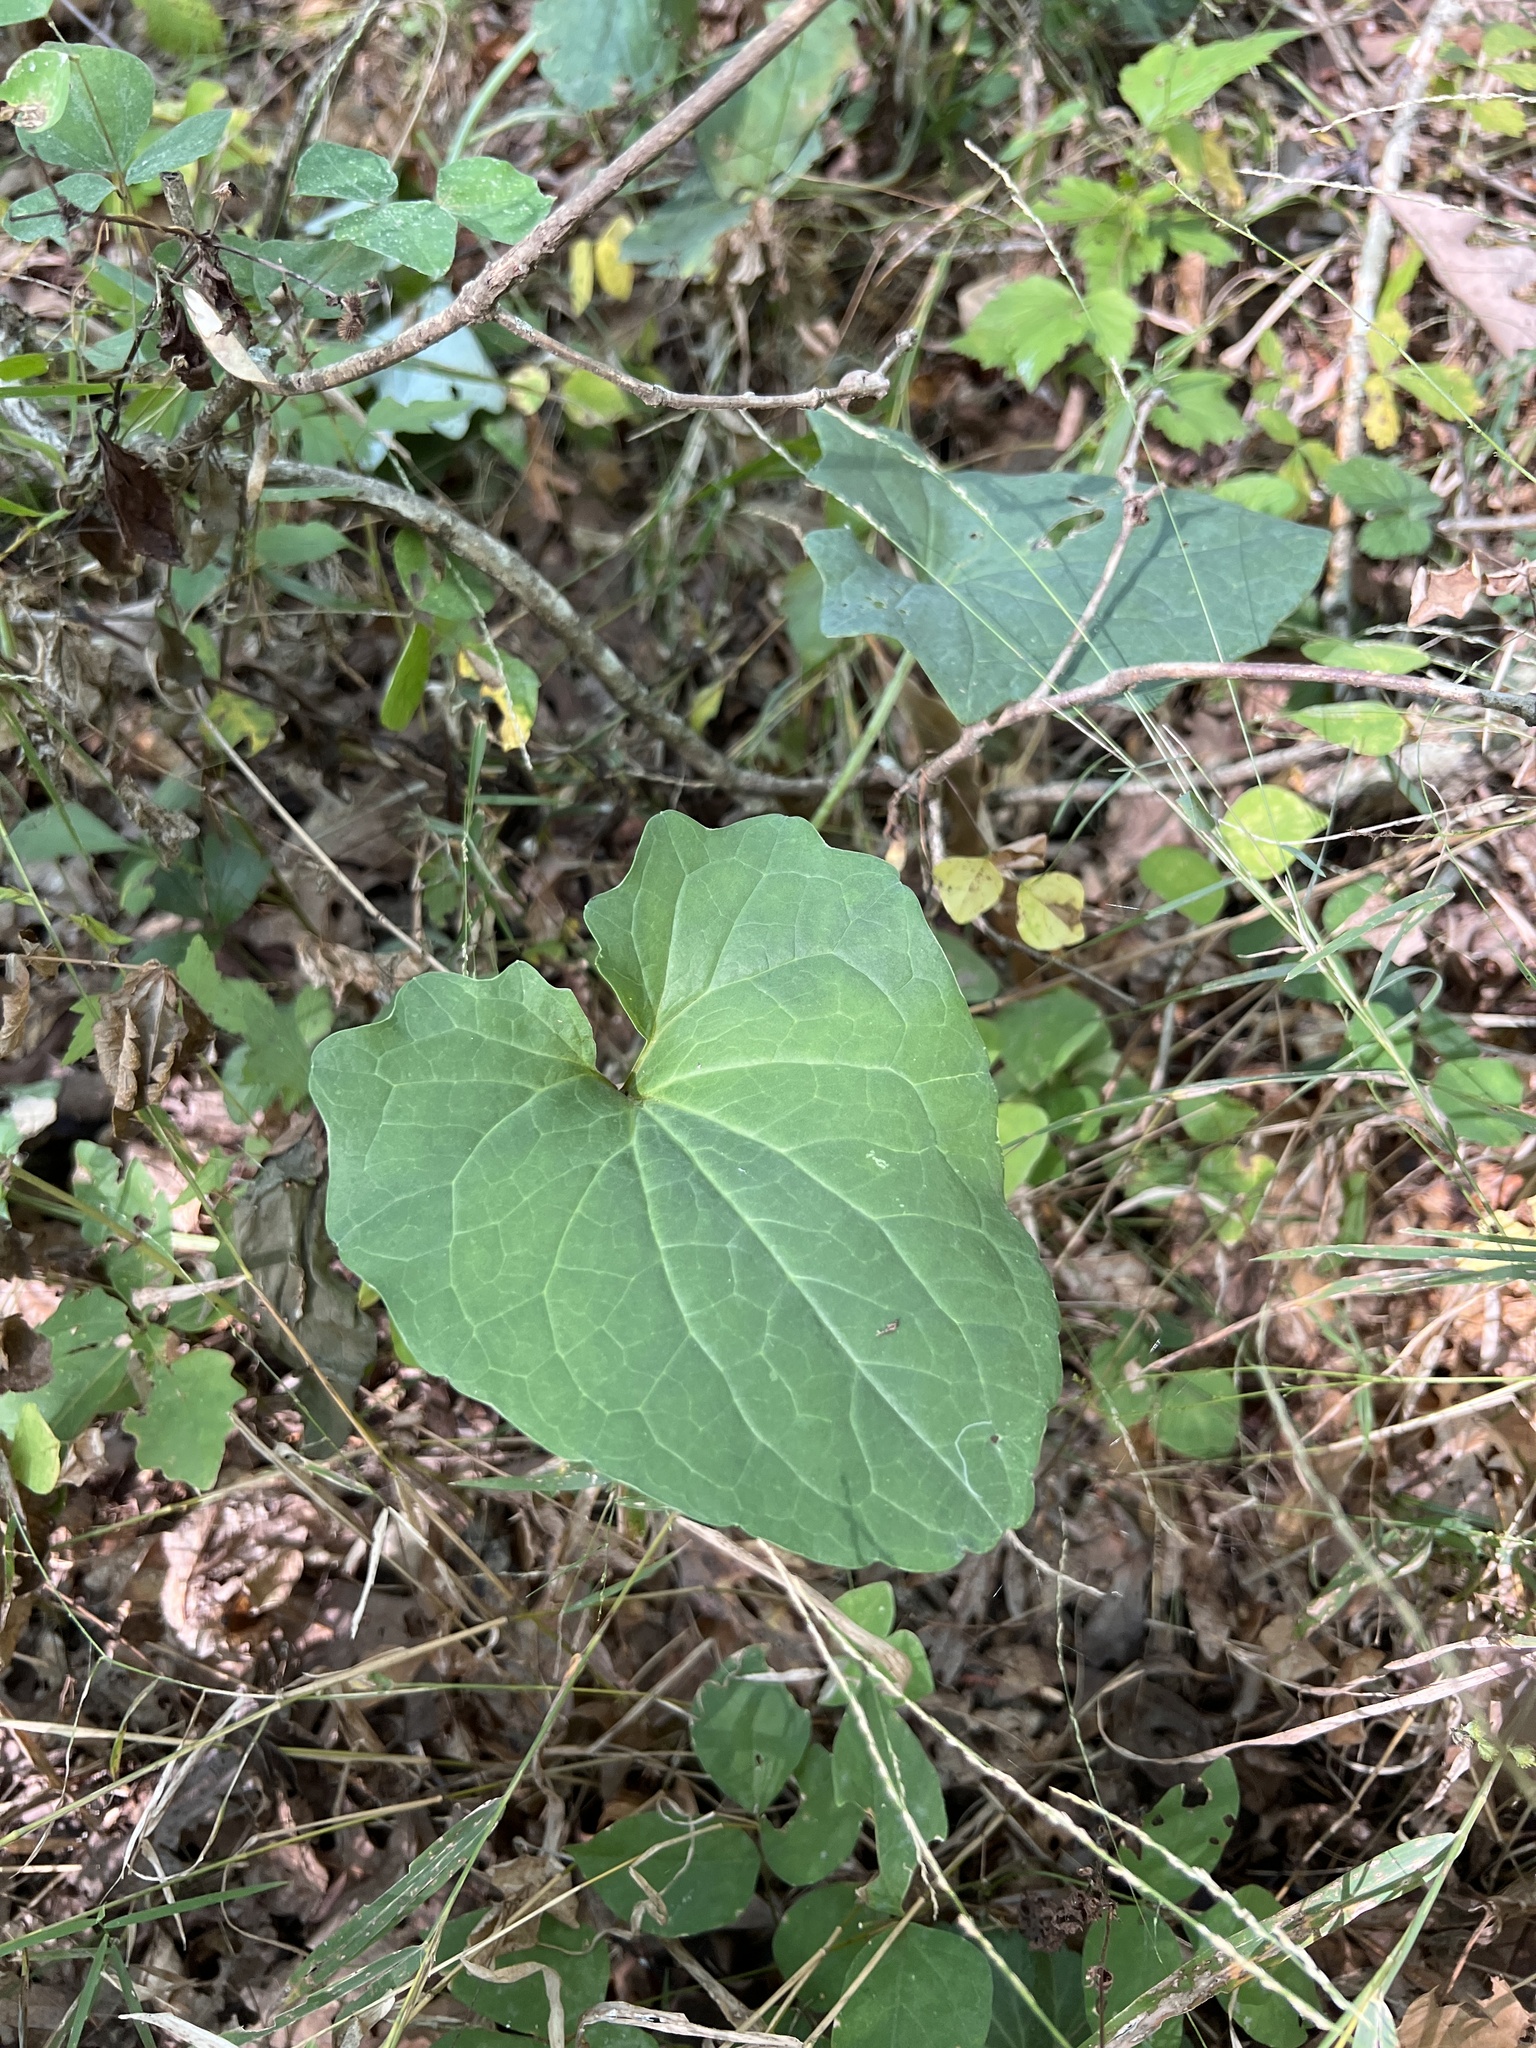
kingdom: Plantae
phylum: Tracheophyta
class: Magnoliopsida
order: Asterales
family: Asteraceae
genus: Arnoglossum
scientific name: Arnoglossum atriplicifolium
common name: Pale indian-plantain
